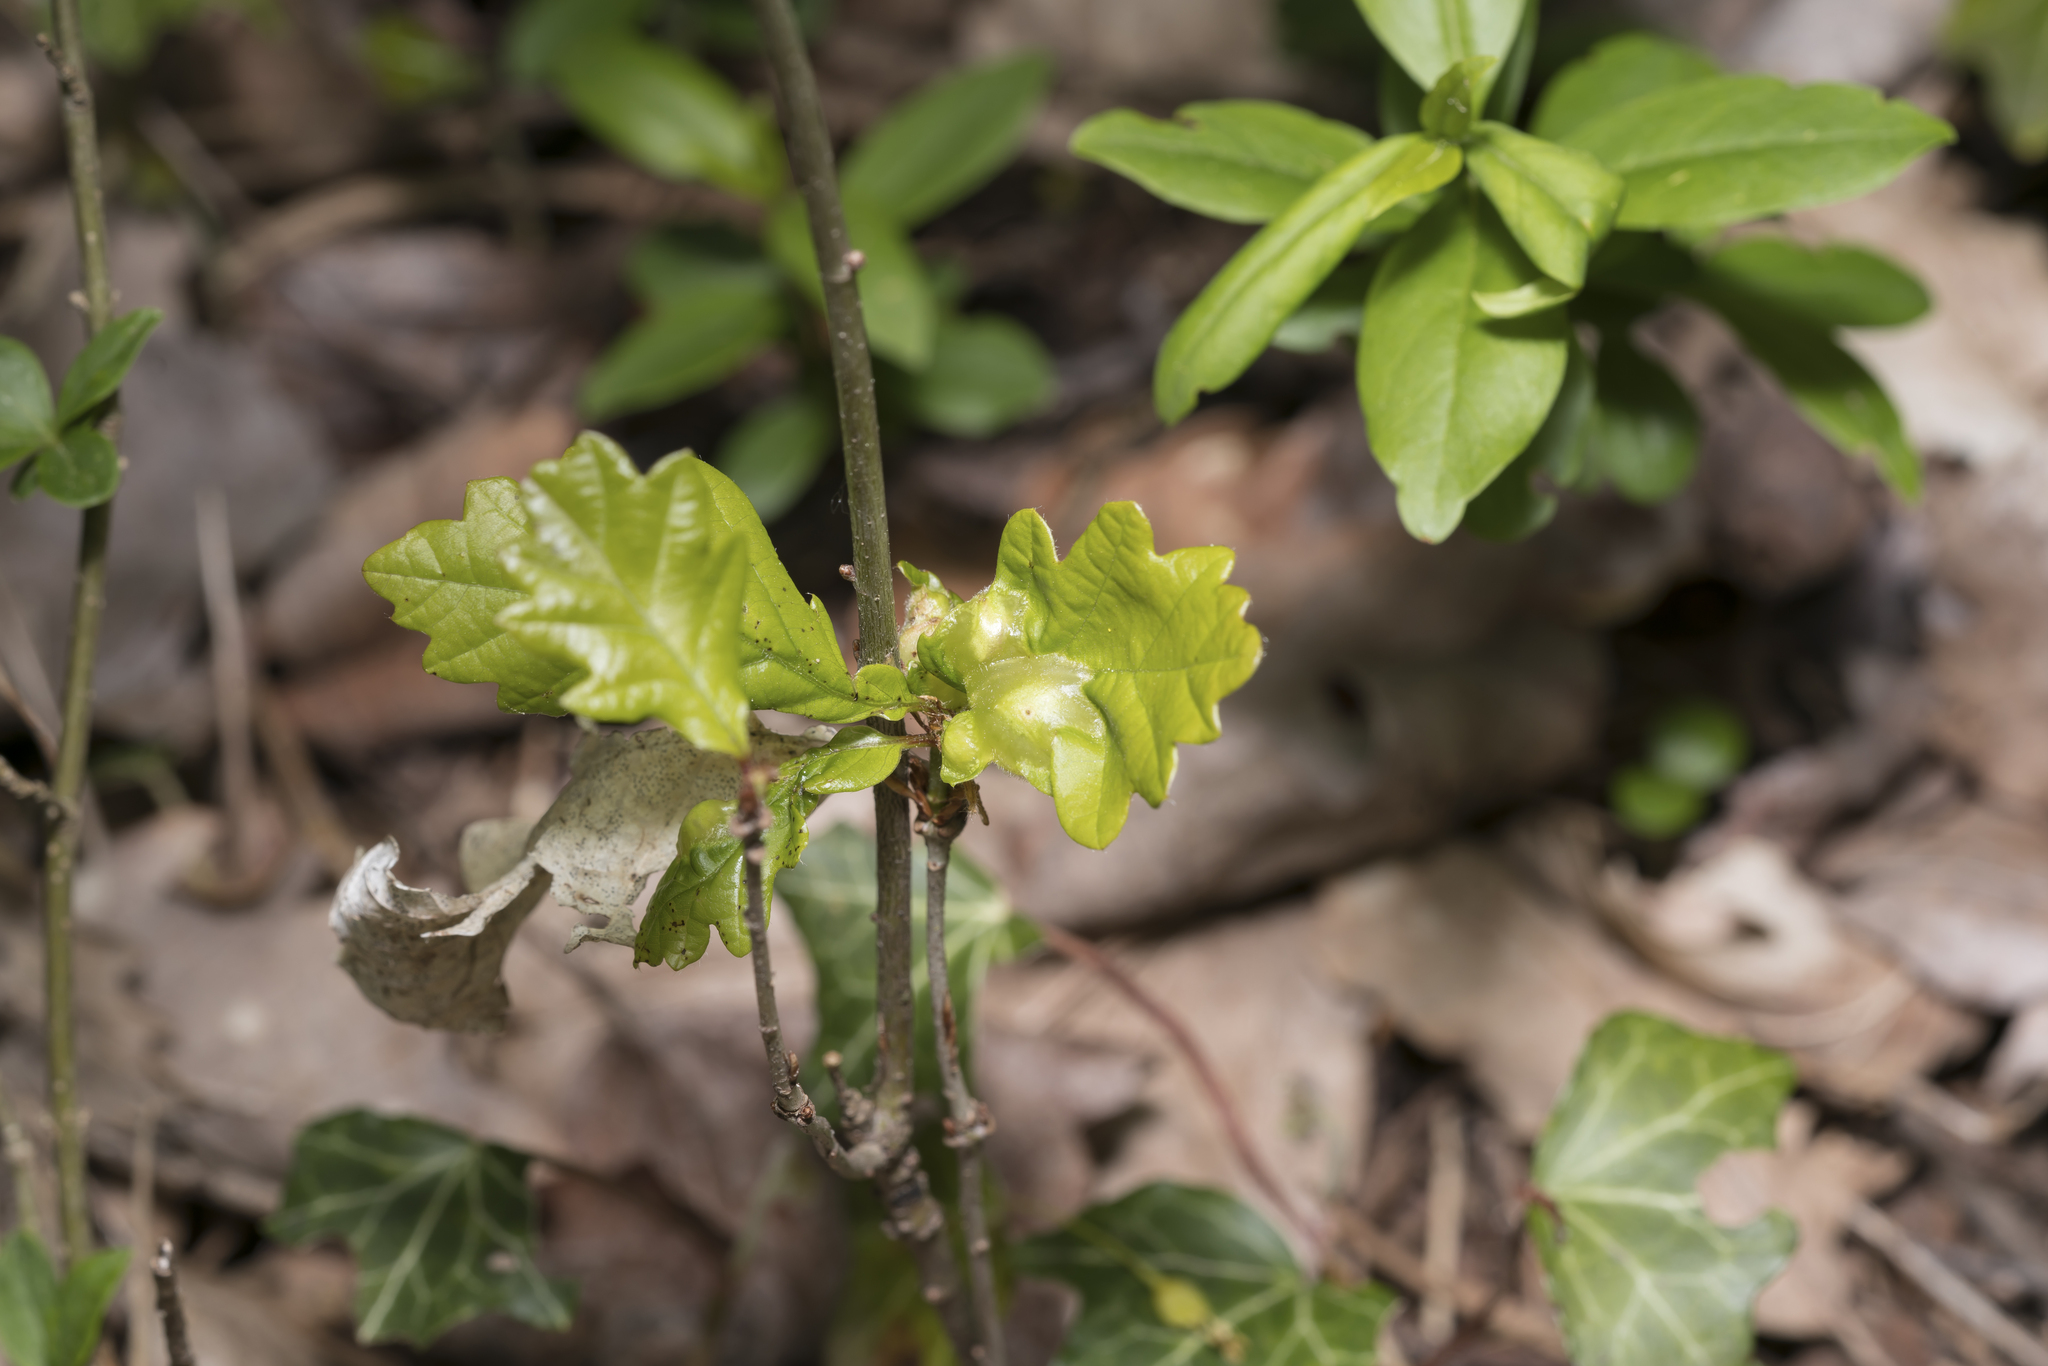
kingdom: Animalia
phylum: Arthropoda
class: Insecta
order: Hymenoptera
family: Cynipidae
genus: Andricus
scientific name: Andricus curvator
